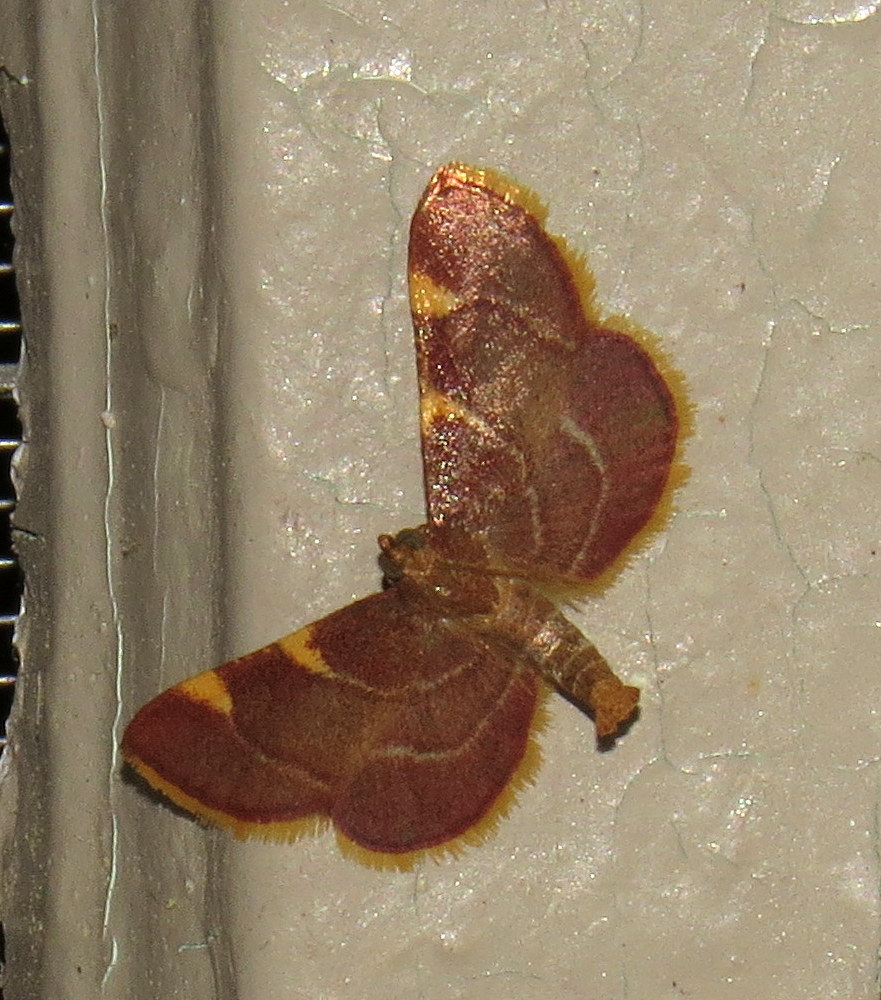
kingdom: Animalia
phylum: Arthropoda
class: Insecta
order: Lepidoptera
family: Pyralidae
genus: Hypsopygia
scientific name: Hypsopygia olinalis
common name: Yellow-fringed dolichomia moth
